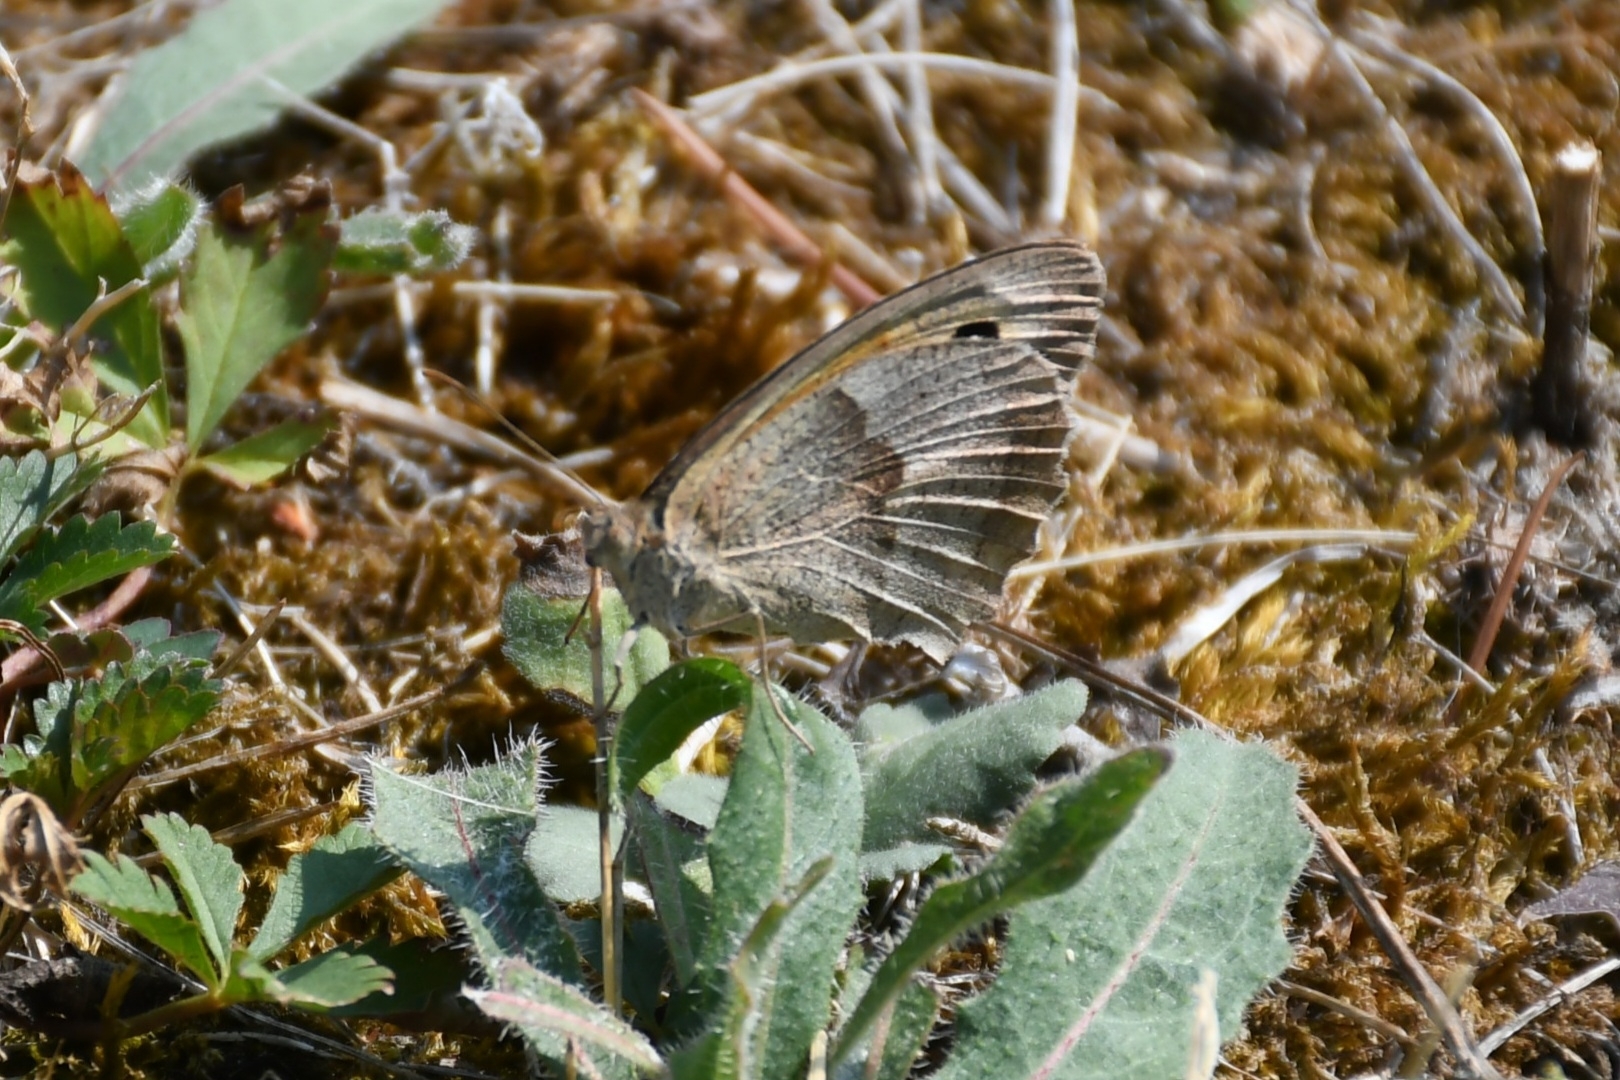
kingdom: Animalia
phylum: Arthropoda
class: Insecta
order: Lepidoptera
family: Nymphalidae
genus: Maniola
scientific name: Maniola jurtina
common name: Meadow brown
